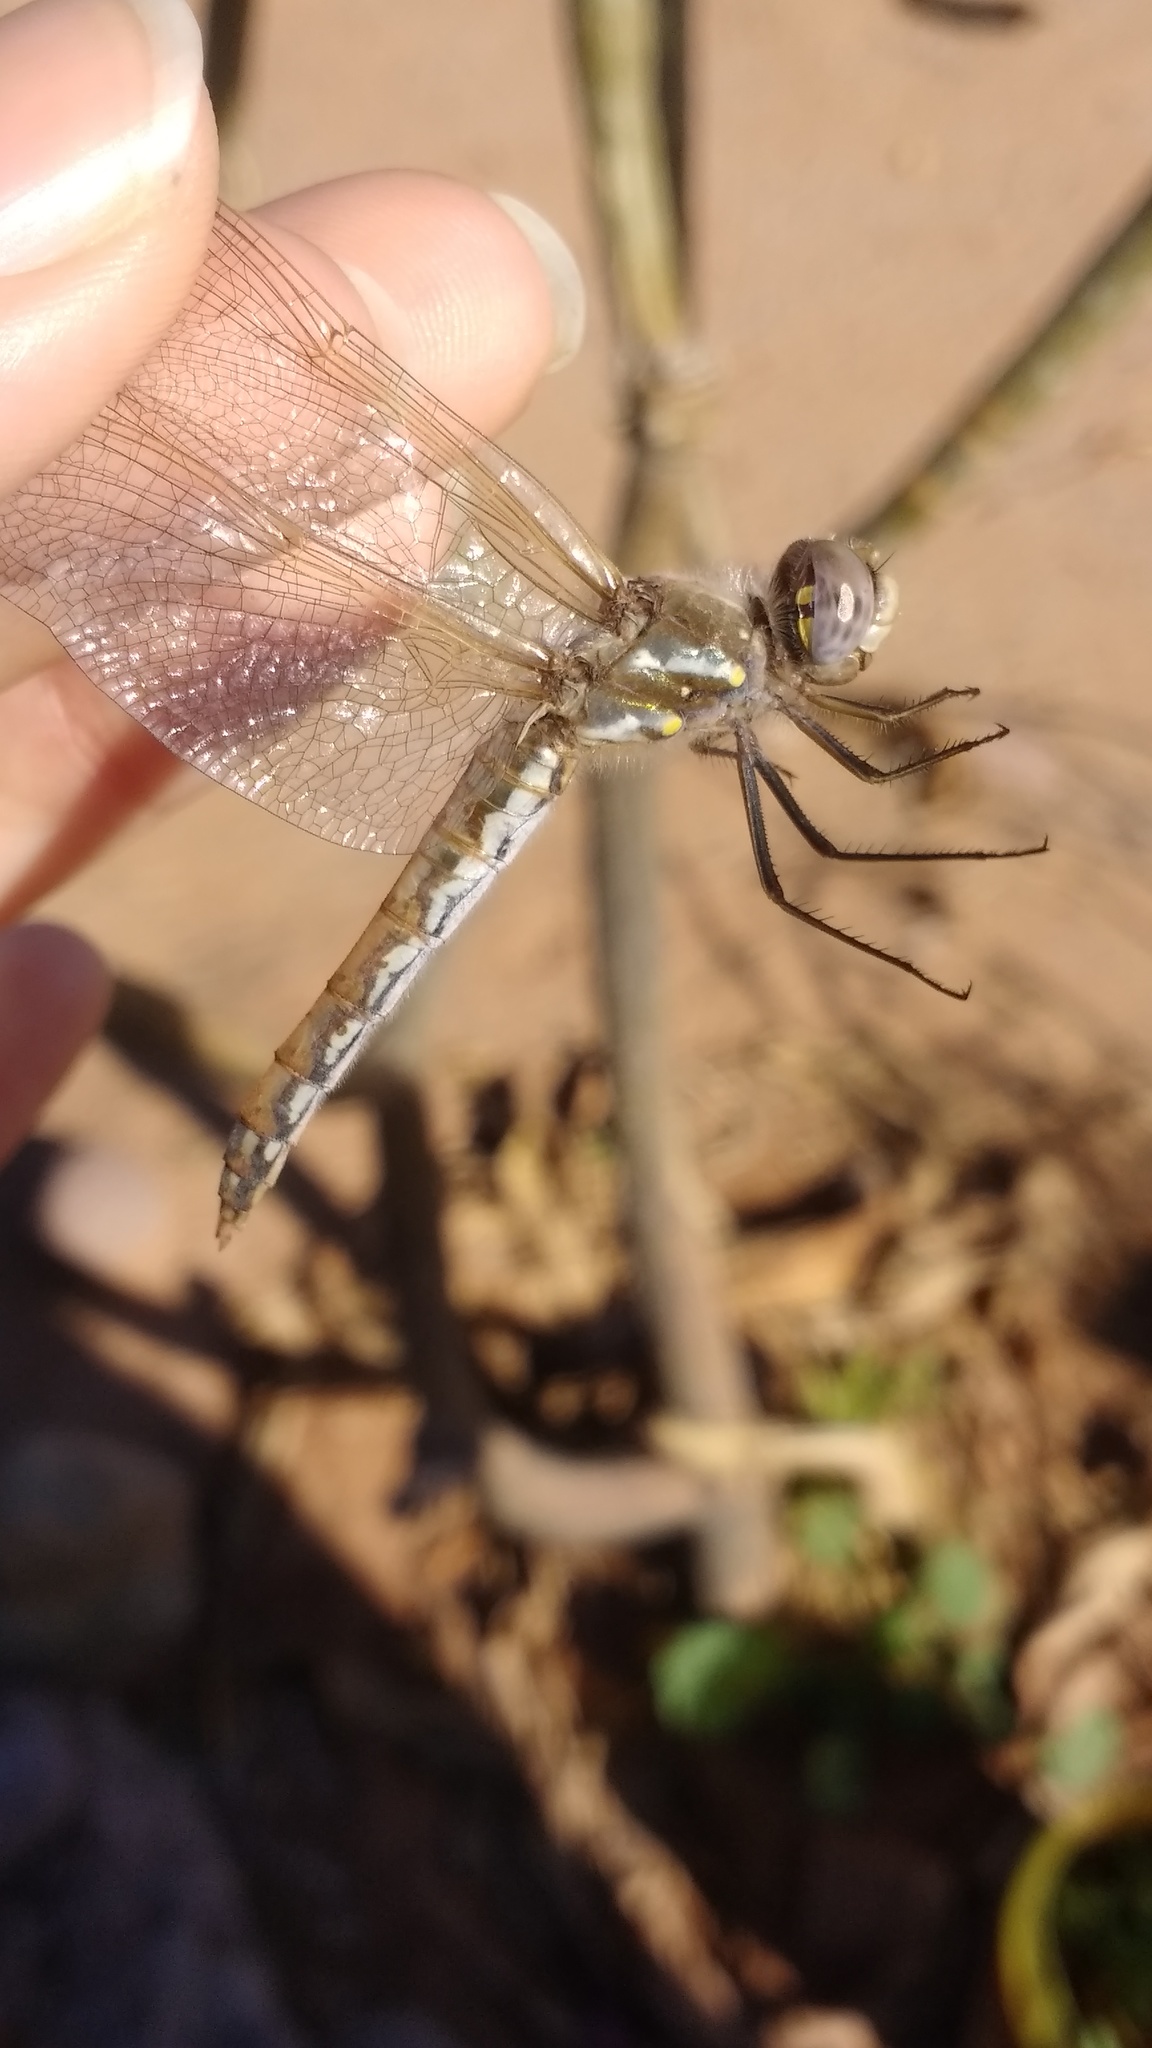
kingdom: Animalia
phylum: Arthropoda
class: Insecta
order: Odonata
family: Libellulidae
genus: Sympetrum
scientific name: Sympetrum corruptum
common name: Variegated meadowhawk
